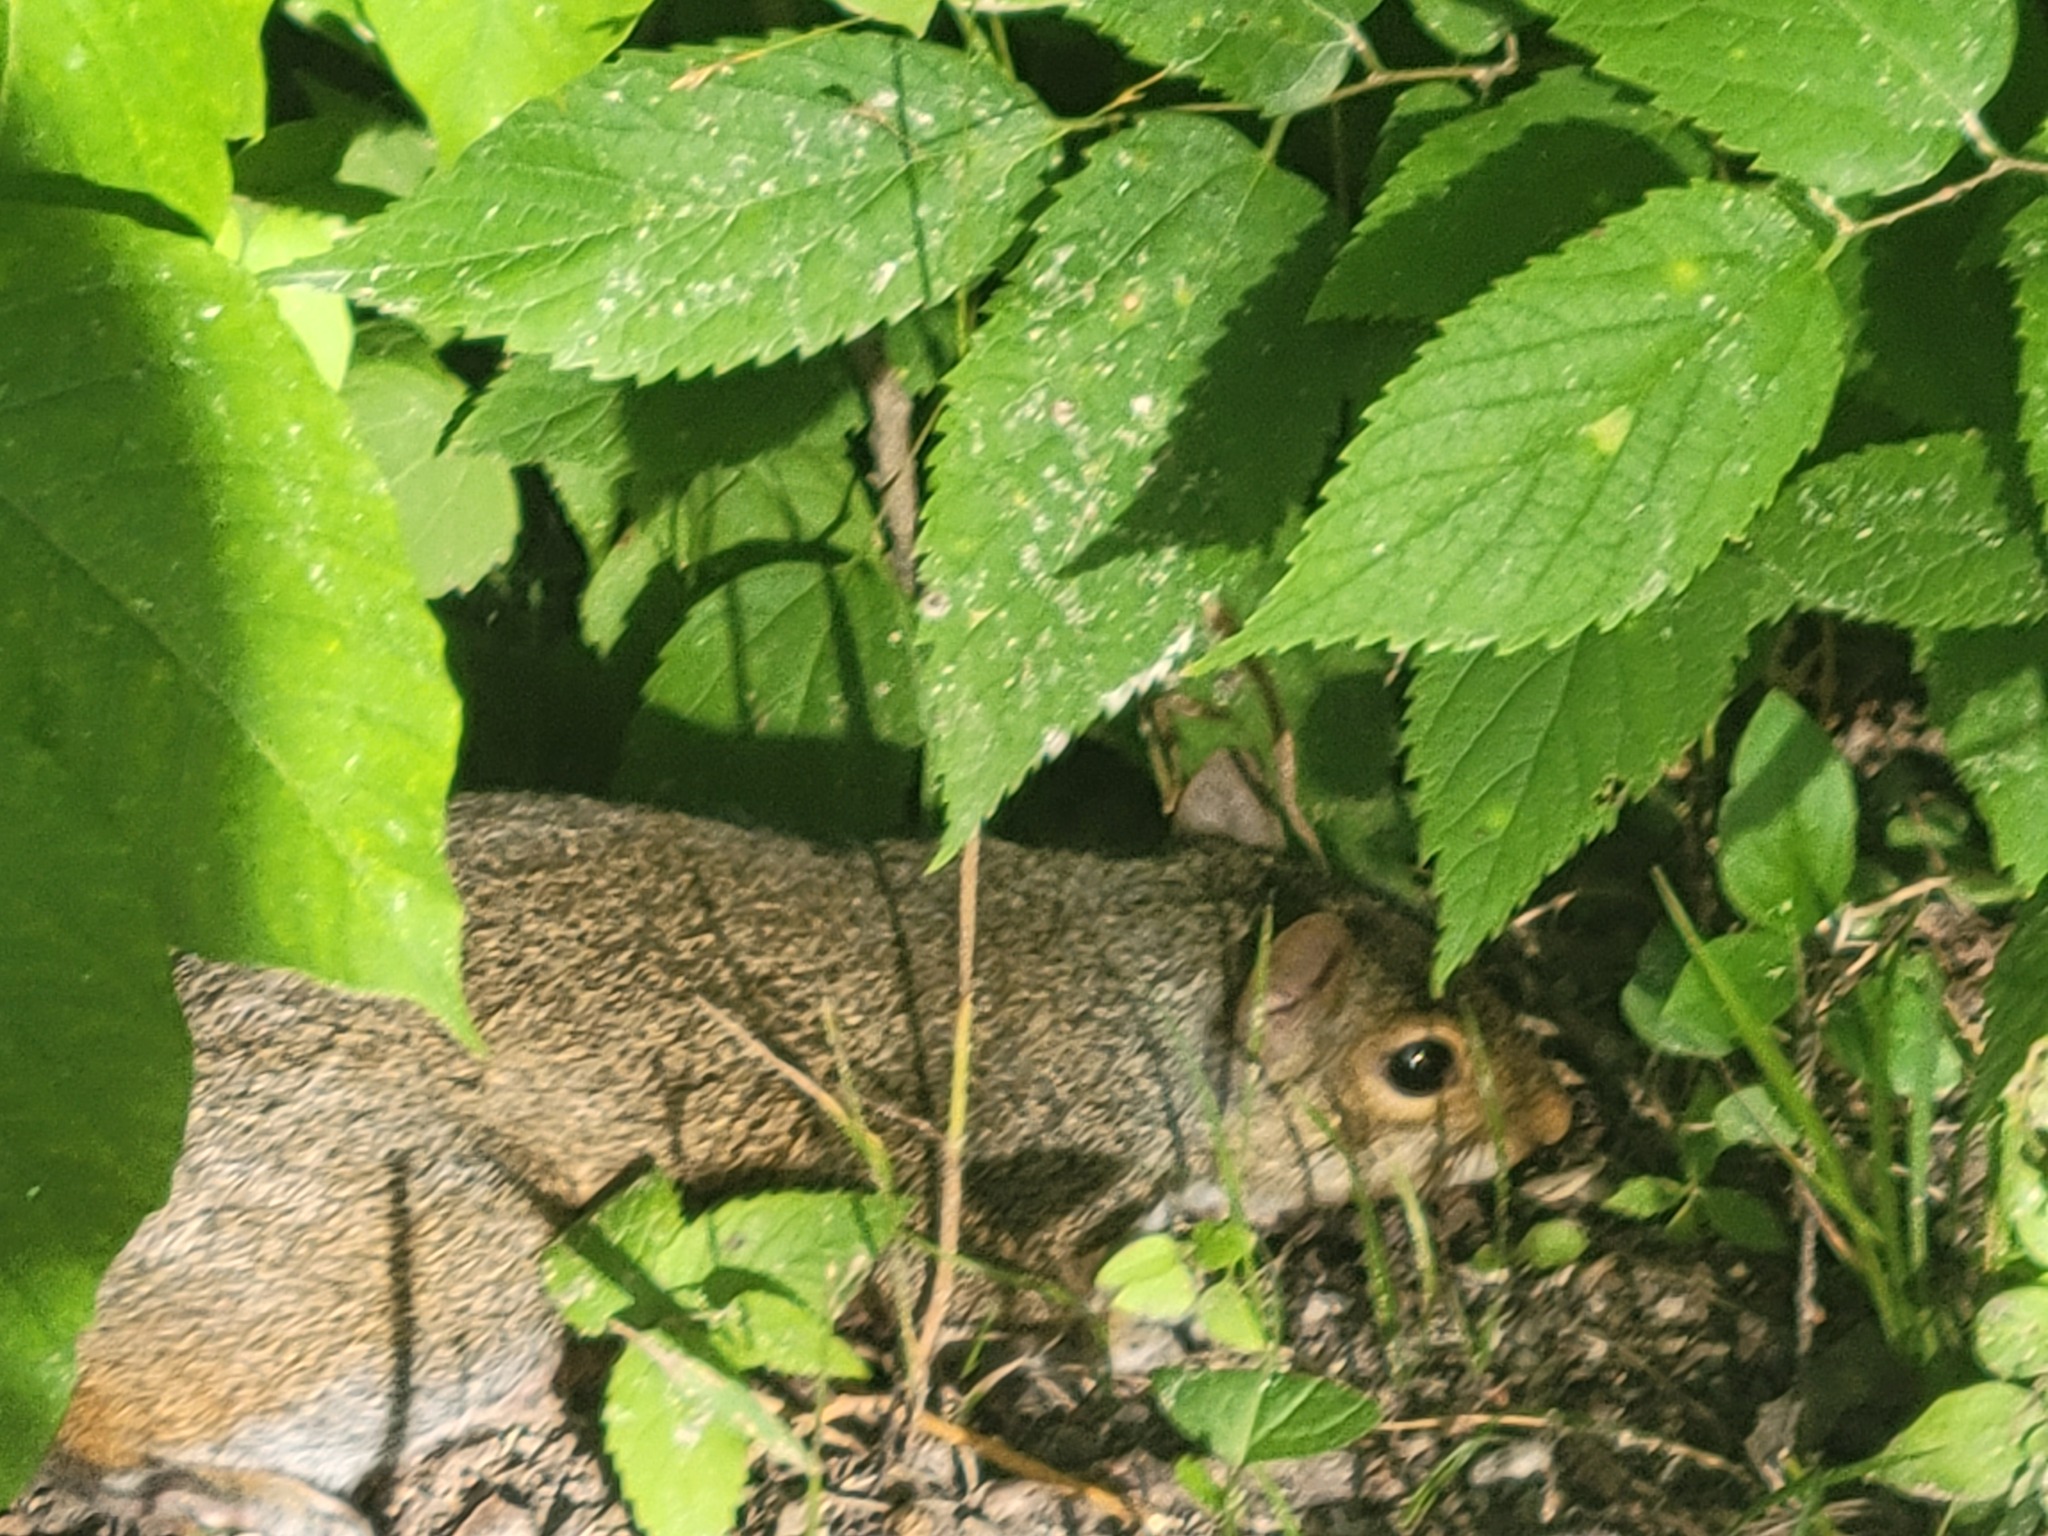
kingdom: Animalia
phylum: Chordata
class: Mammalia
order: Rodentia
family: Sciuridae
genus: Sciurus
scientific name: Sciurus carolinensis
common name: Eastern gray squirrel
